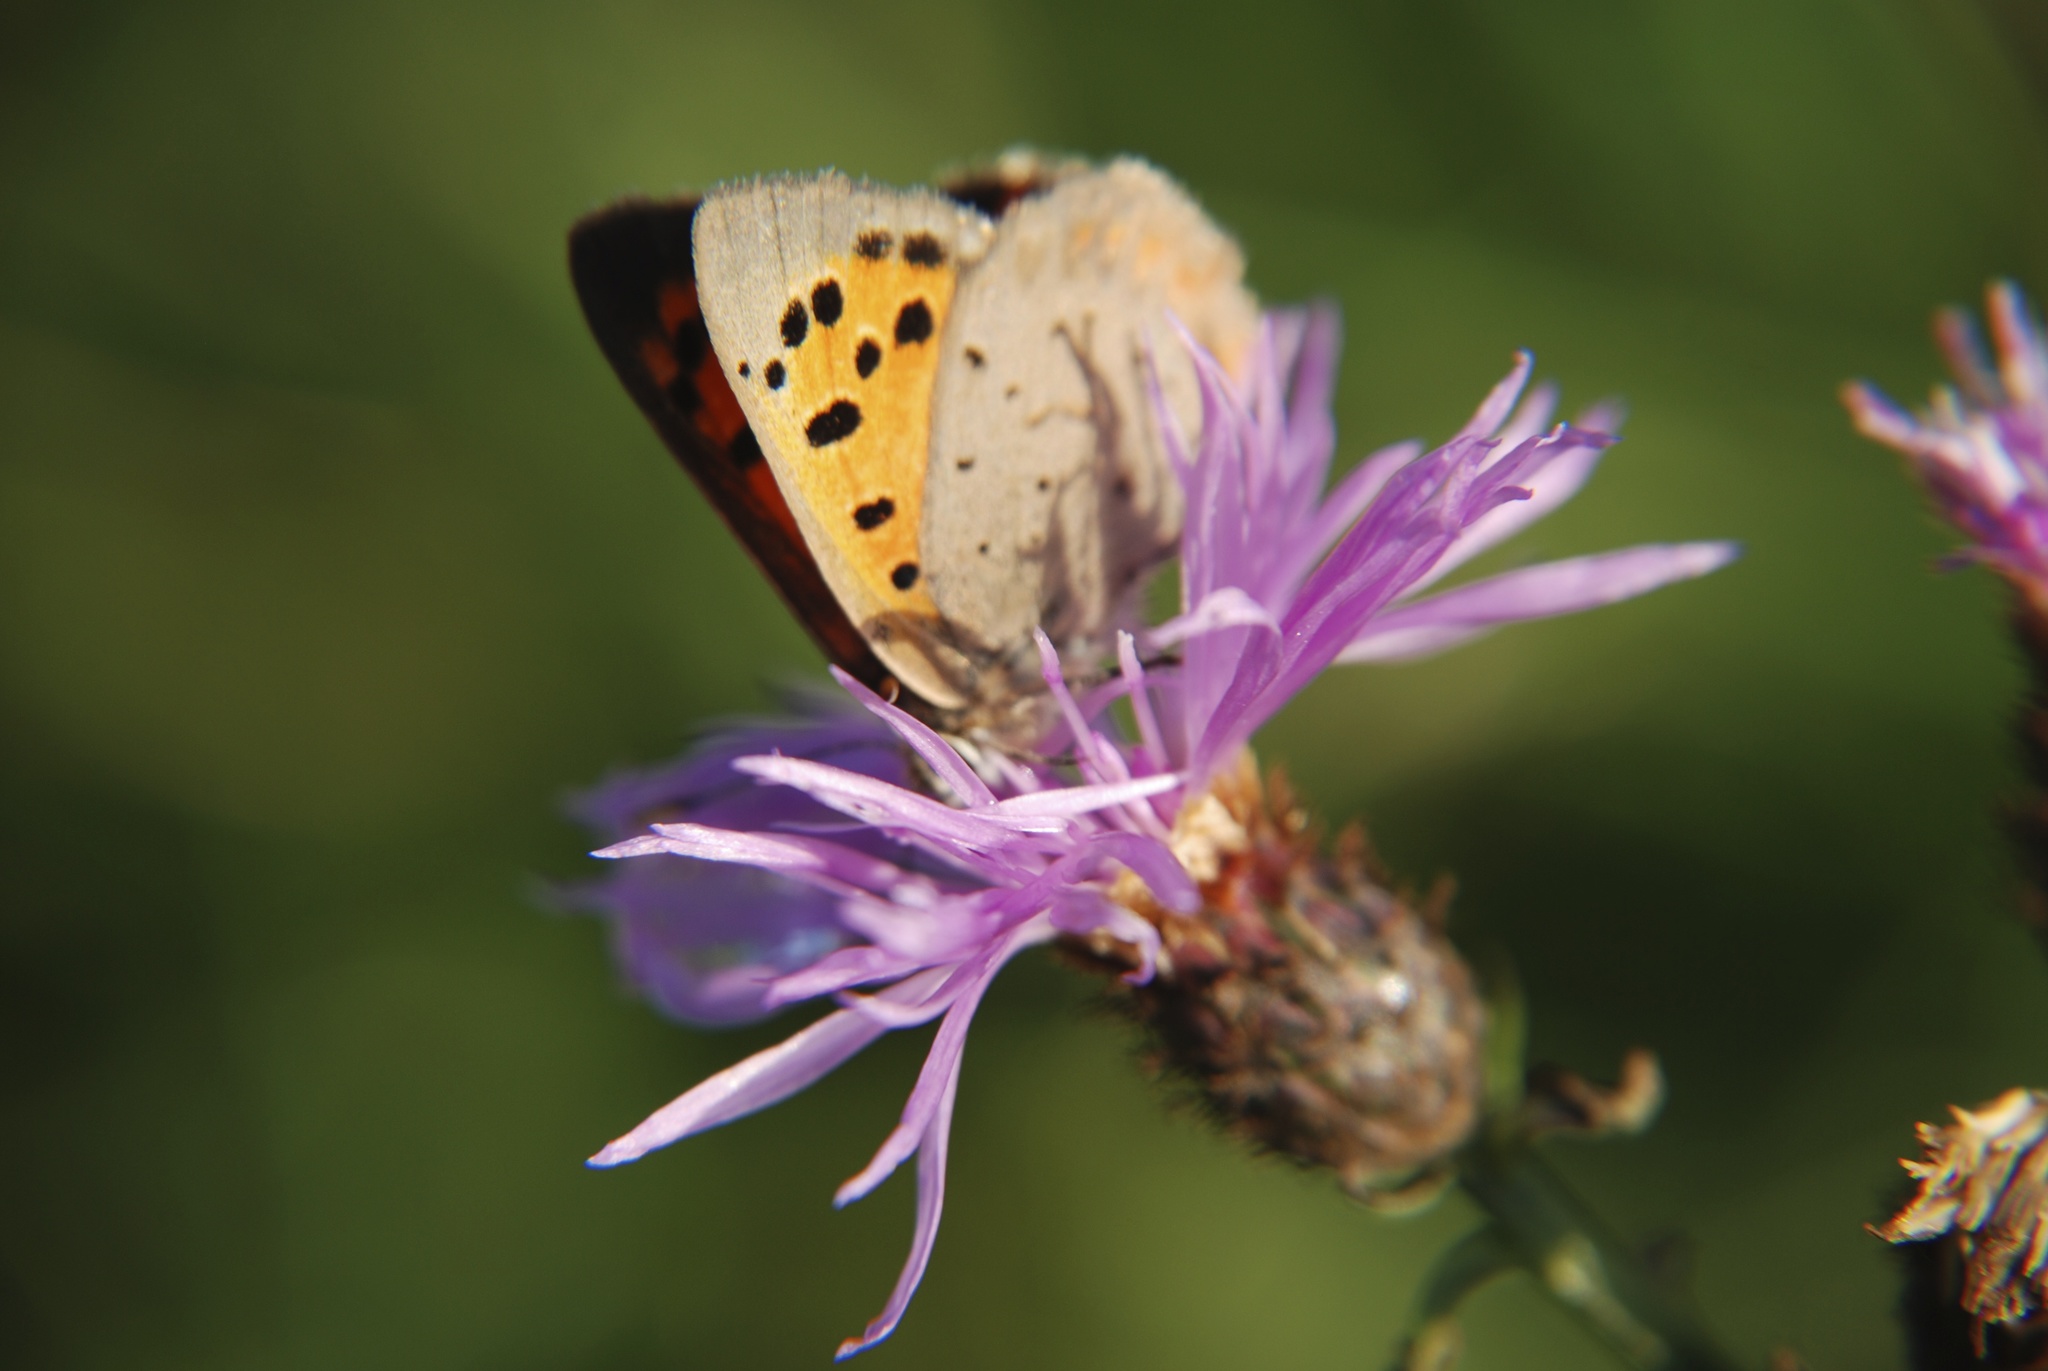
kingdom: Animalia
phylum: Arthropoda
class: Insecta
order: Lepidoptera
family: Lycaenidae
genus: Lycaena
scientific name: Lycaena phlaeas
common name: Small copper
